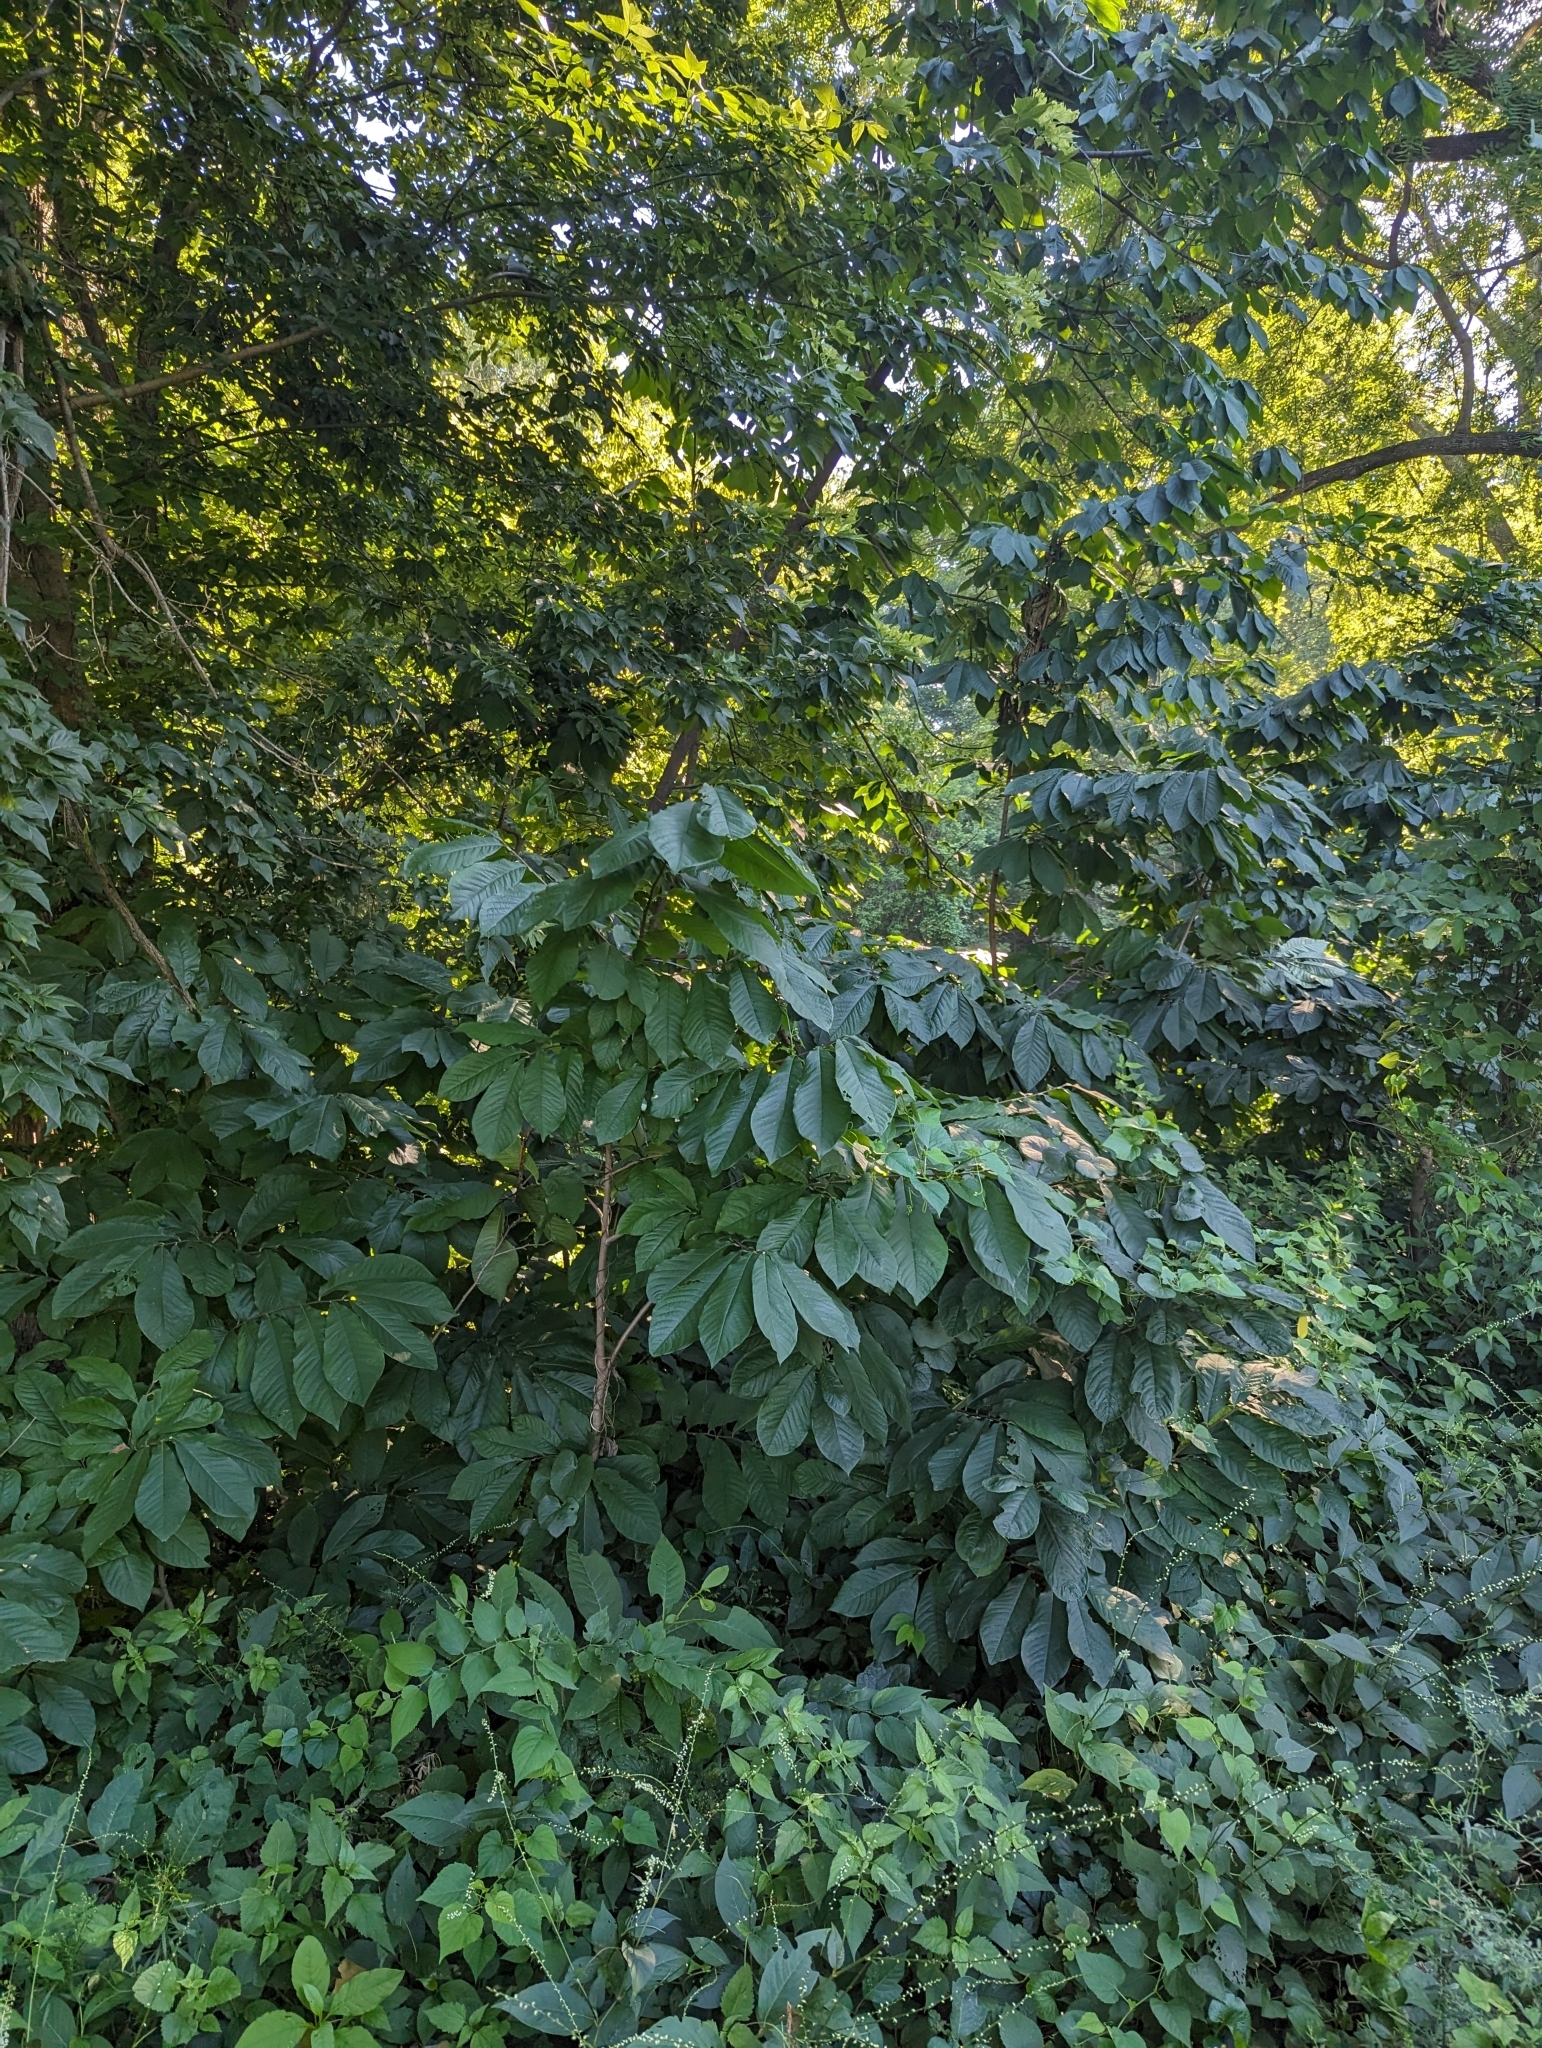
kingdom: Plantae
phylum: Tracheophyta
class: Magnoliopsida
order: Magnoliales
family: Annonaceae
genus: Asimina
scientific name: Asimina triloba
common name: Dog-banana
